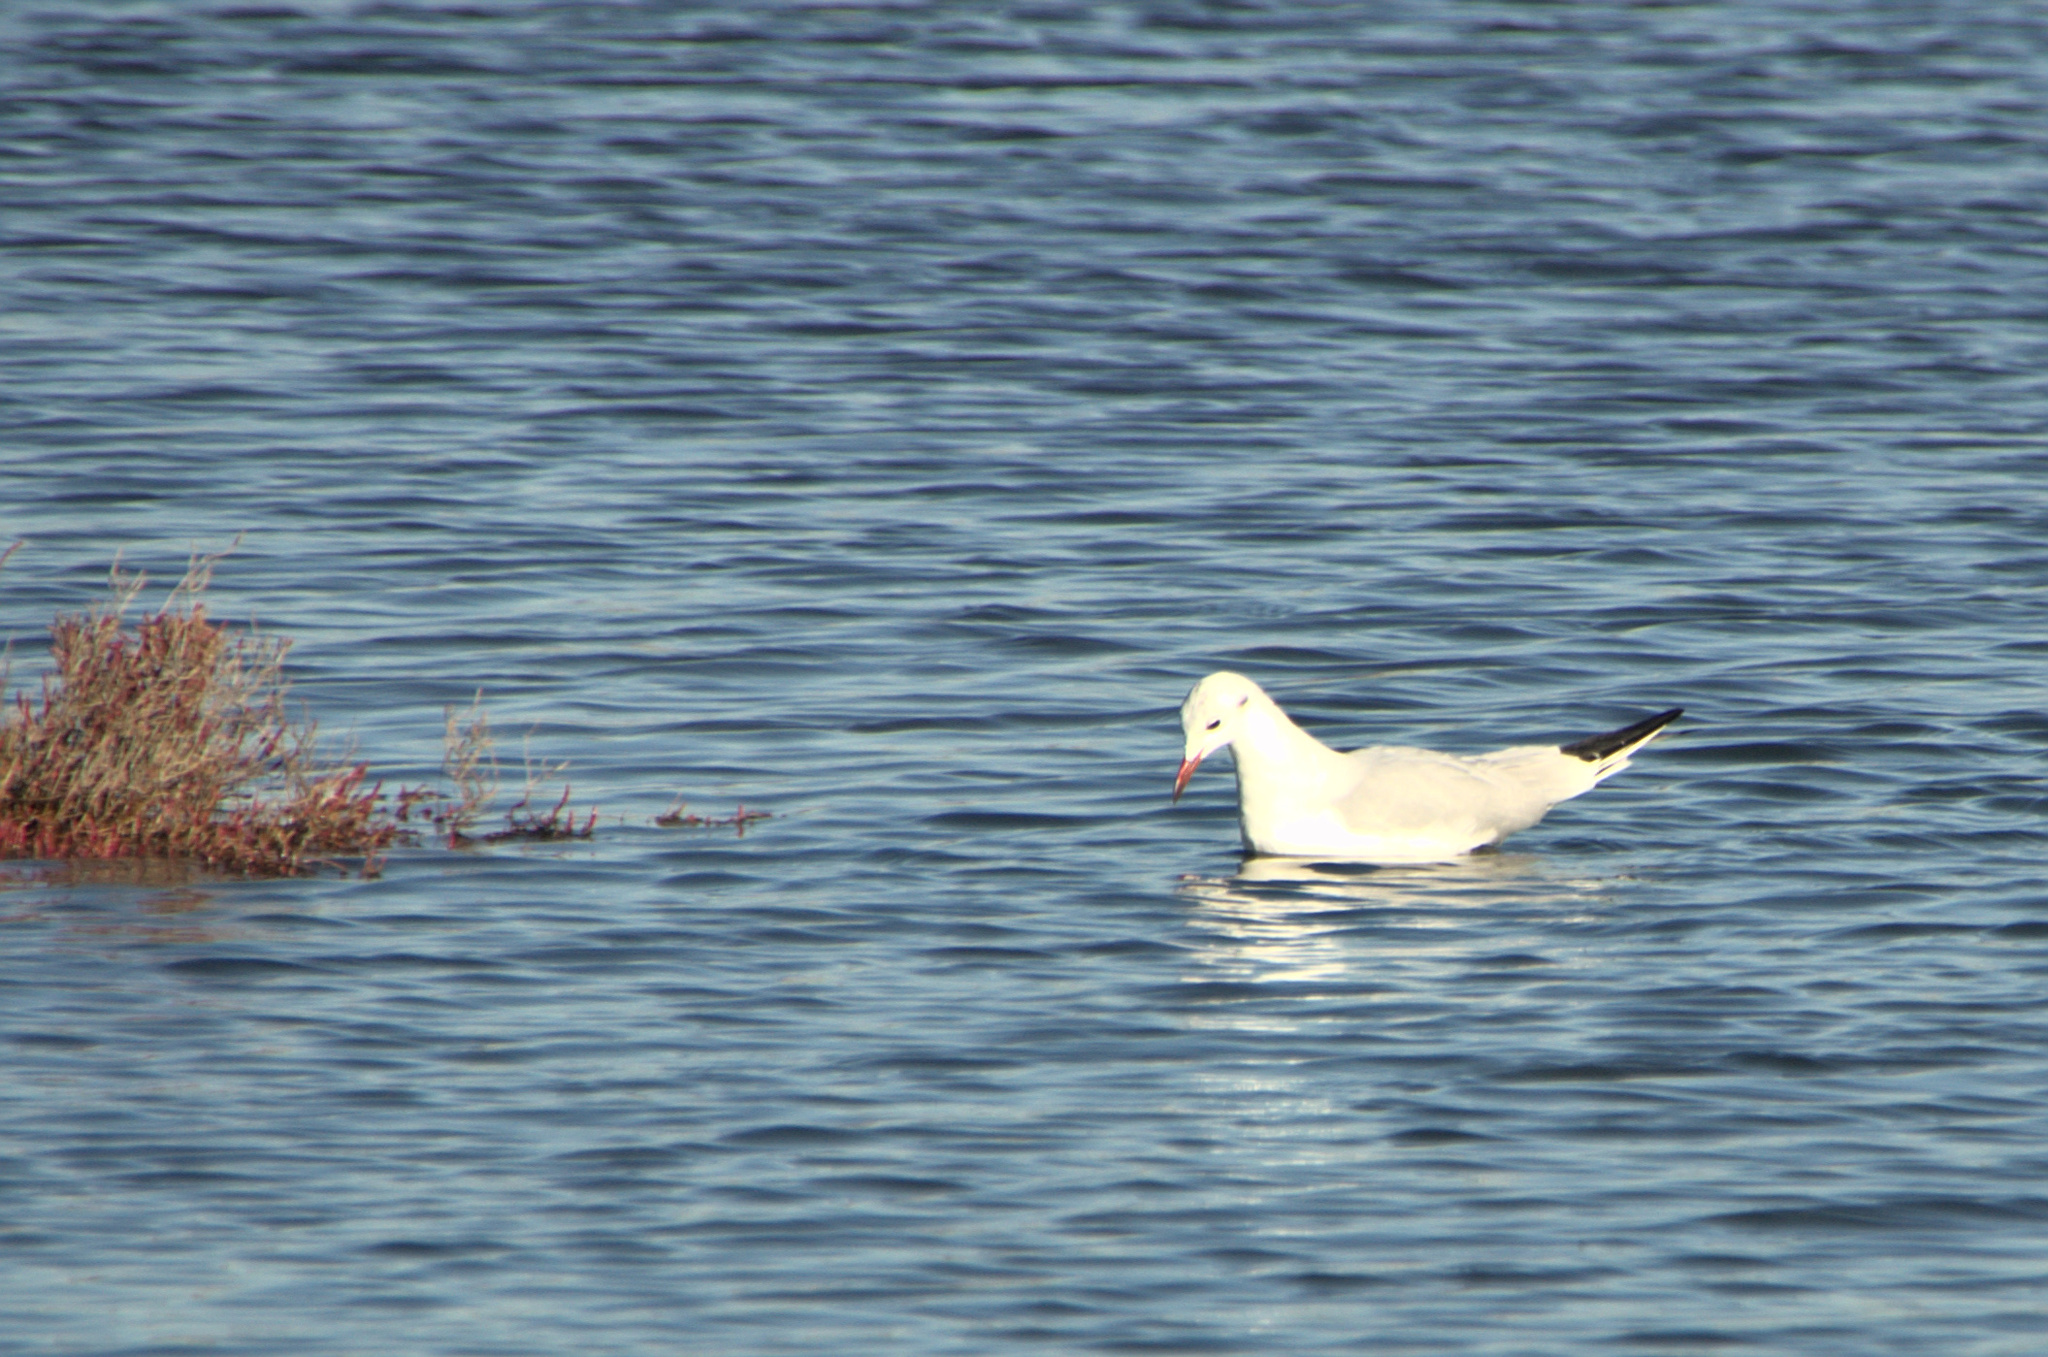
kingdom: Animalia
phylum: Chordata
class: Aves
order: Charadriiformes
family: Laridae
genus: Chroicocephalus
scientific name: Chroicocephalus ridibundus
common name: Black-headed gull
